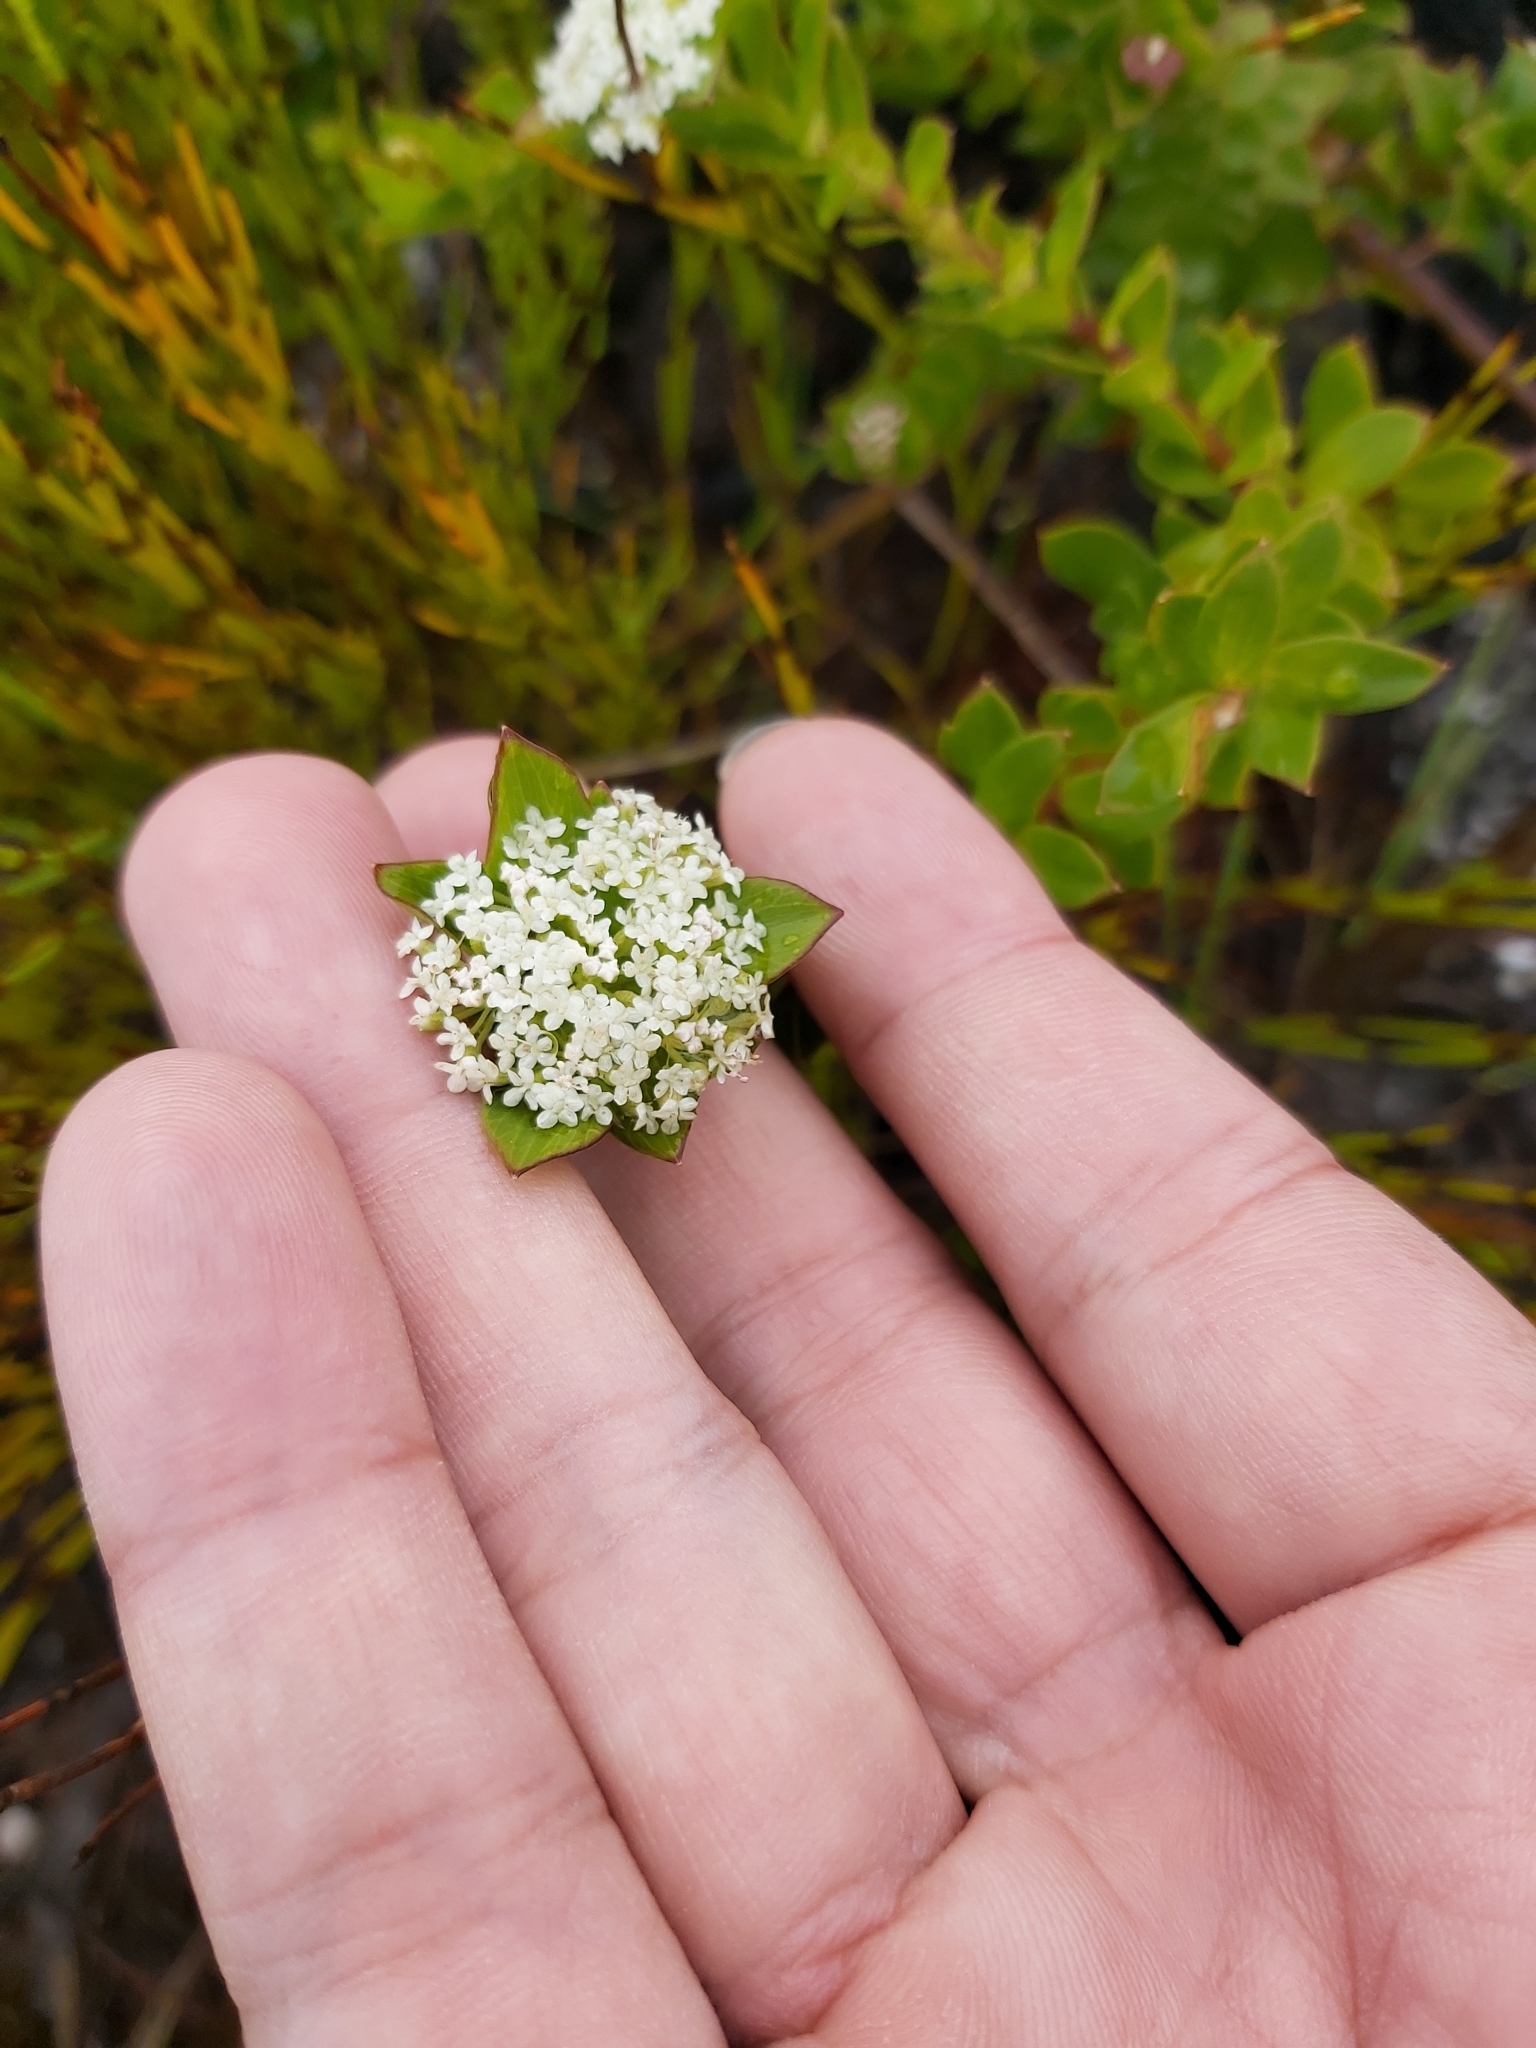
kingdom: Plantae
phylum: Tracheophyta
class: Magnoliopsida
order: Apiales
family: Apiaceae
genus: Platysace
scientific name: Platysace lanceolata
